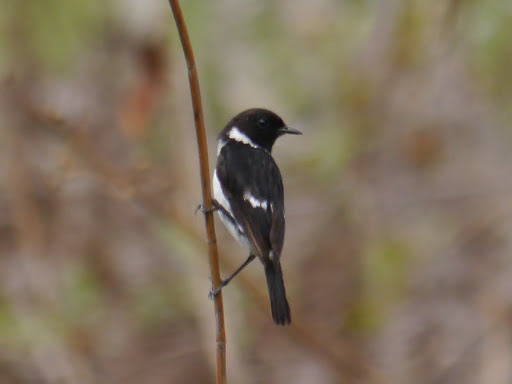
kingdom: Animalia
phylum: Chordata
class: Aves
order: Passeriformes
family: Muscicapidae
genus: Saxicola
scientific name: Saxicola torquatus
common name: African stonechat
